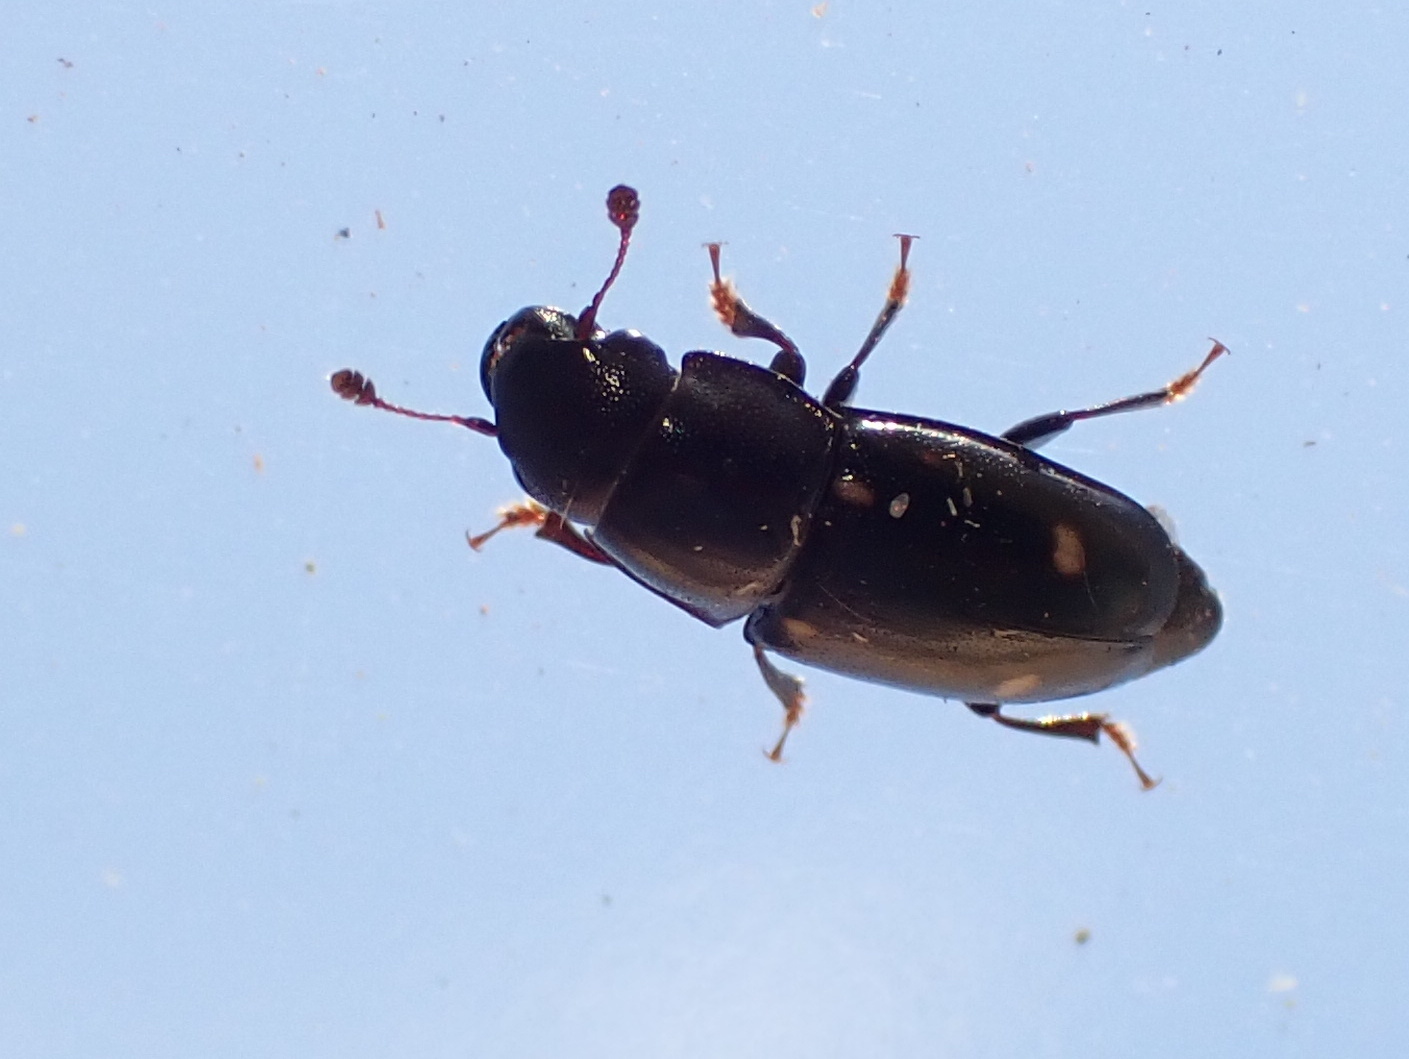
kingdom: Animalia
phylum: Arthropoda
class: Insecta
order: Coleoptera
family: Nitidulidae
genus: Glischrochilus
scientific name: Glischrochilus siepmanni
